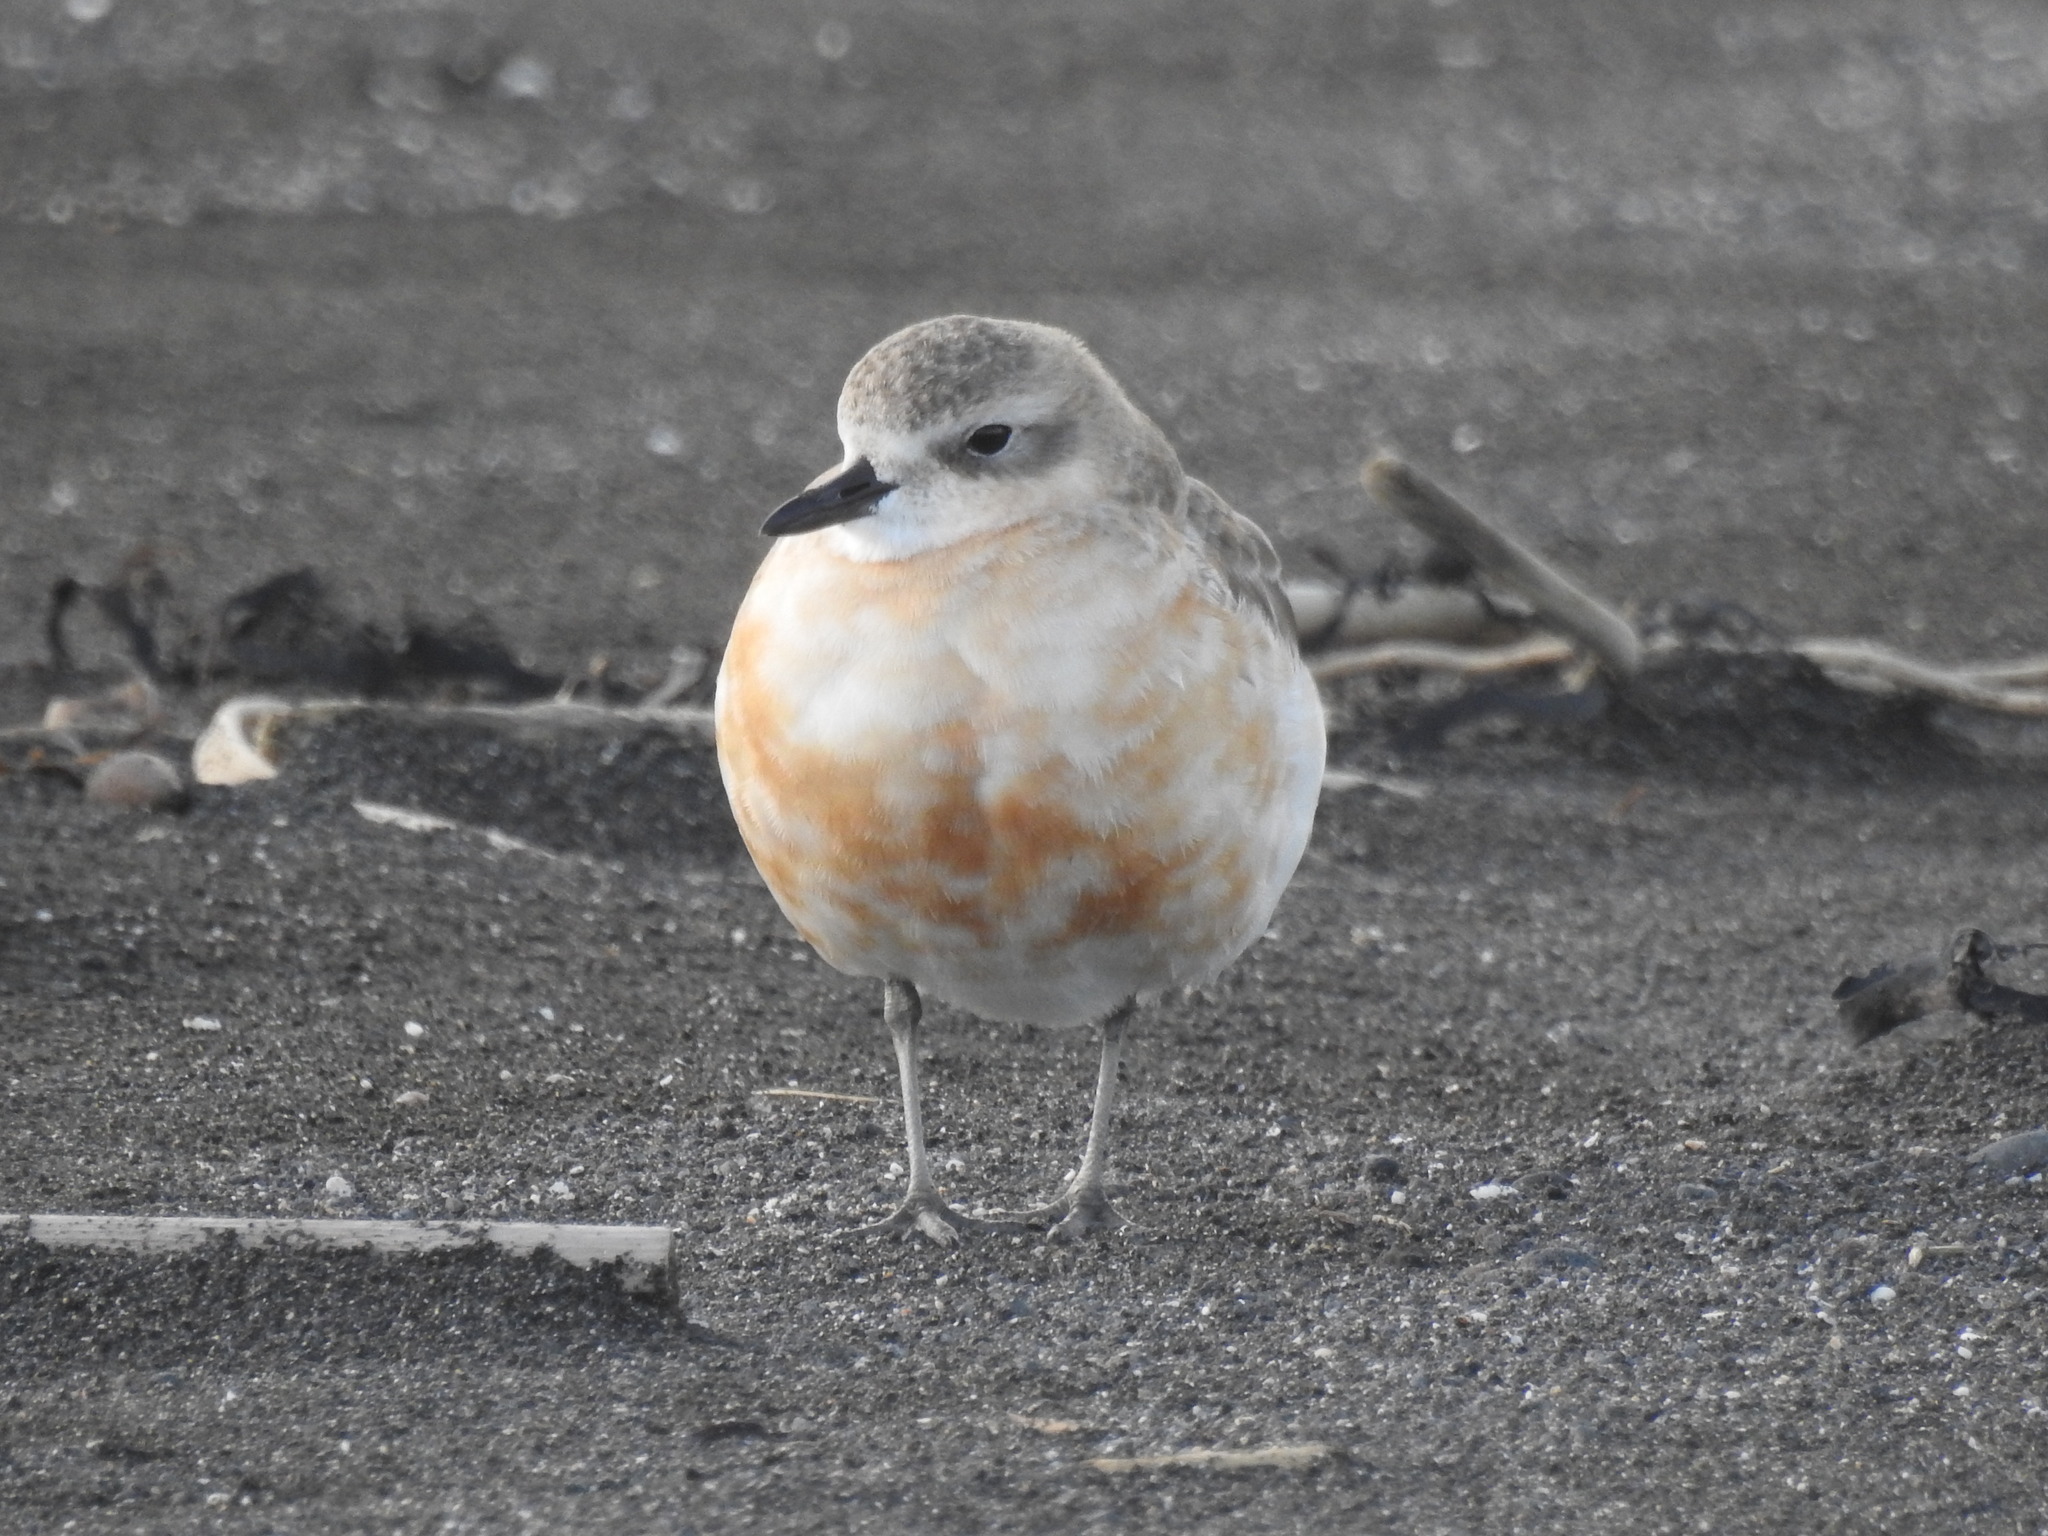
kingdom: Animalia
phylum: Chordata
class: Aves
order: Charadriiformes
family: Charadriidae
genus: Anarhynchus
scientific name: Anarhynchus
